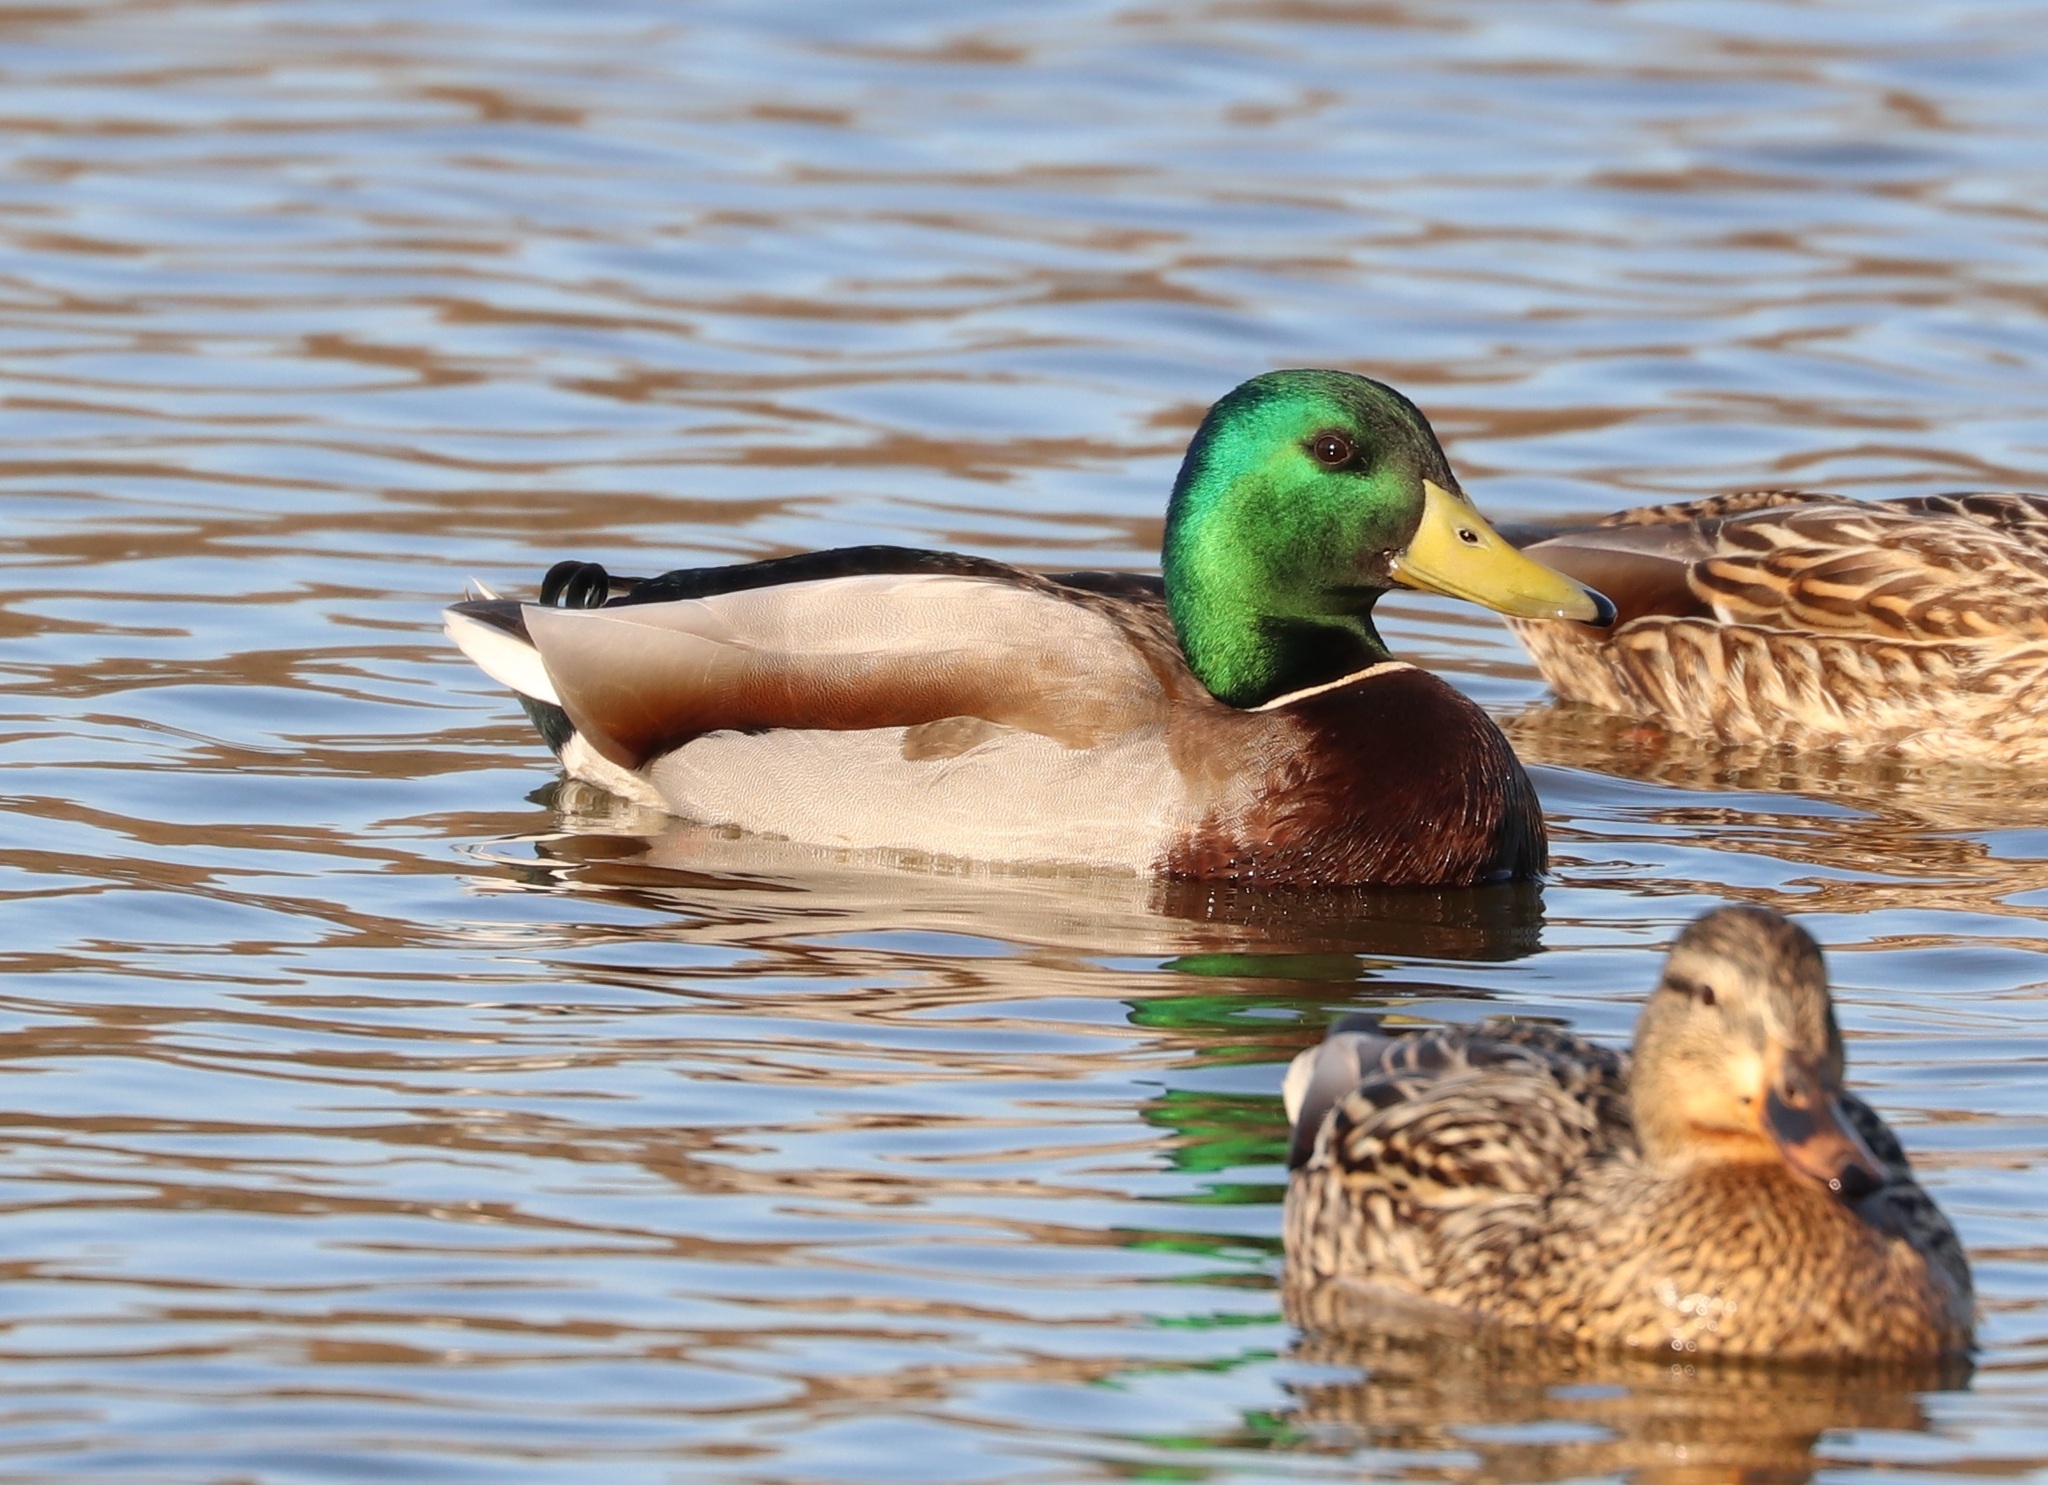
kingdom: Animalia
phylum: Chordata
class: Aves
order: Anseriformes
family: Anatidae
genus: Anas
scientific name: Anas platyrhynchos
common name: Mallard
